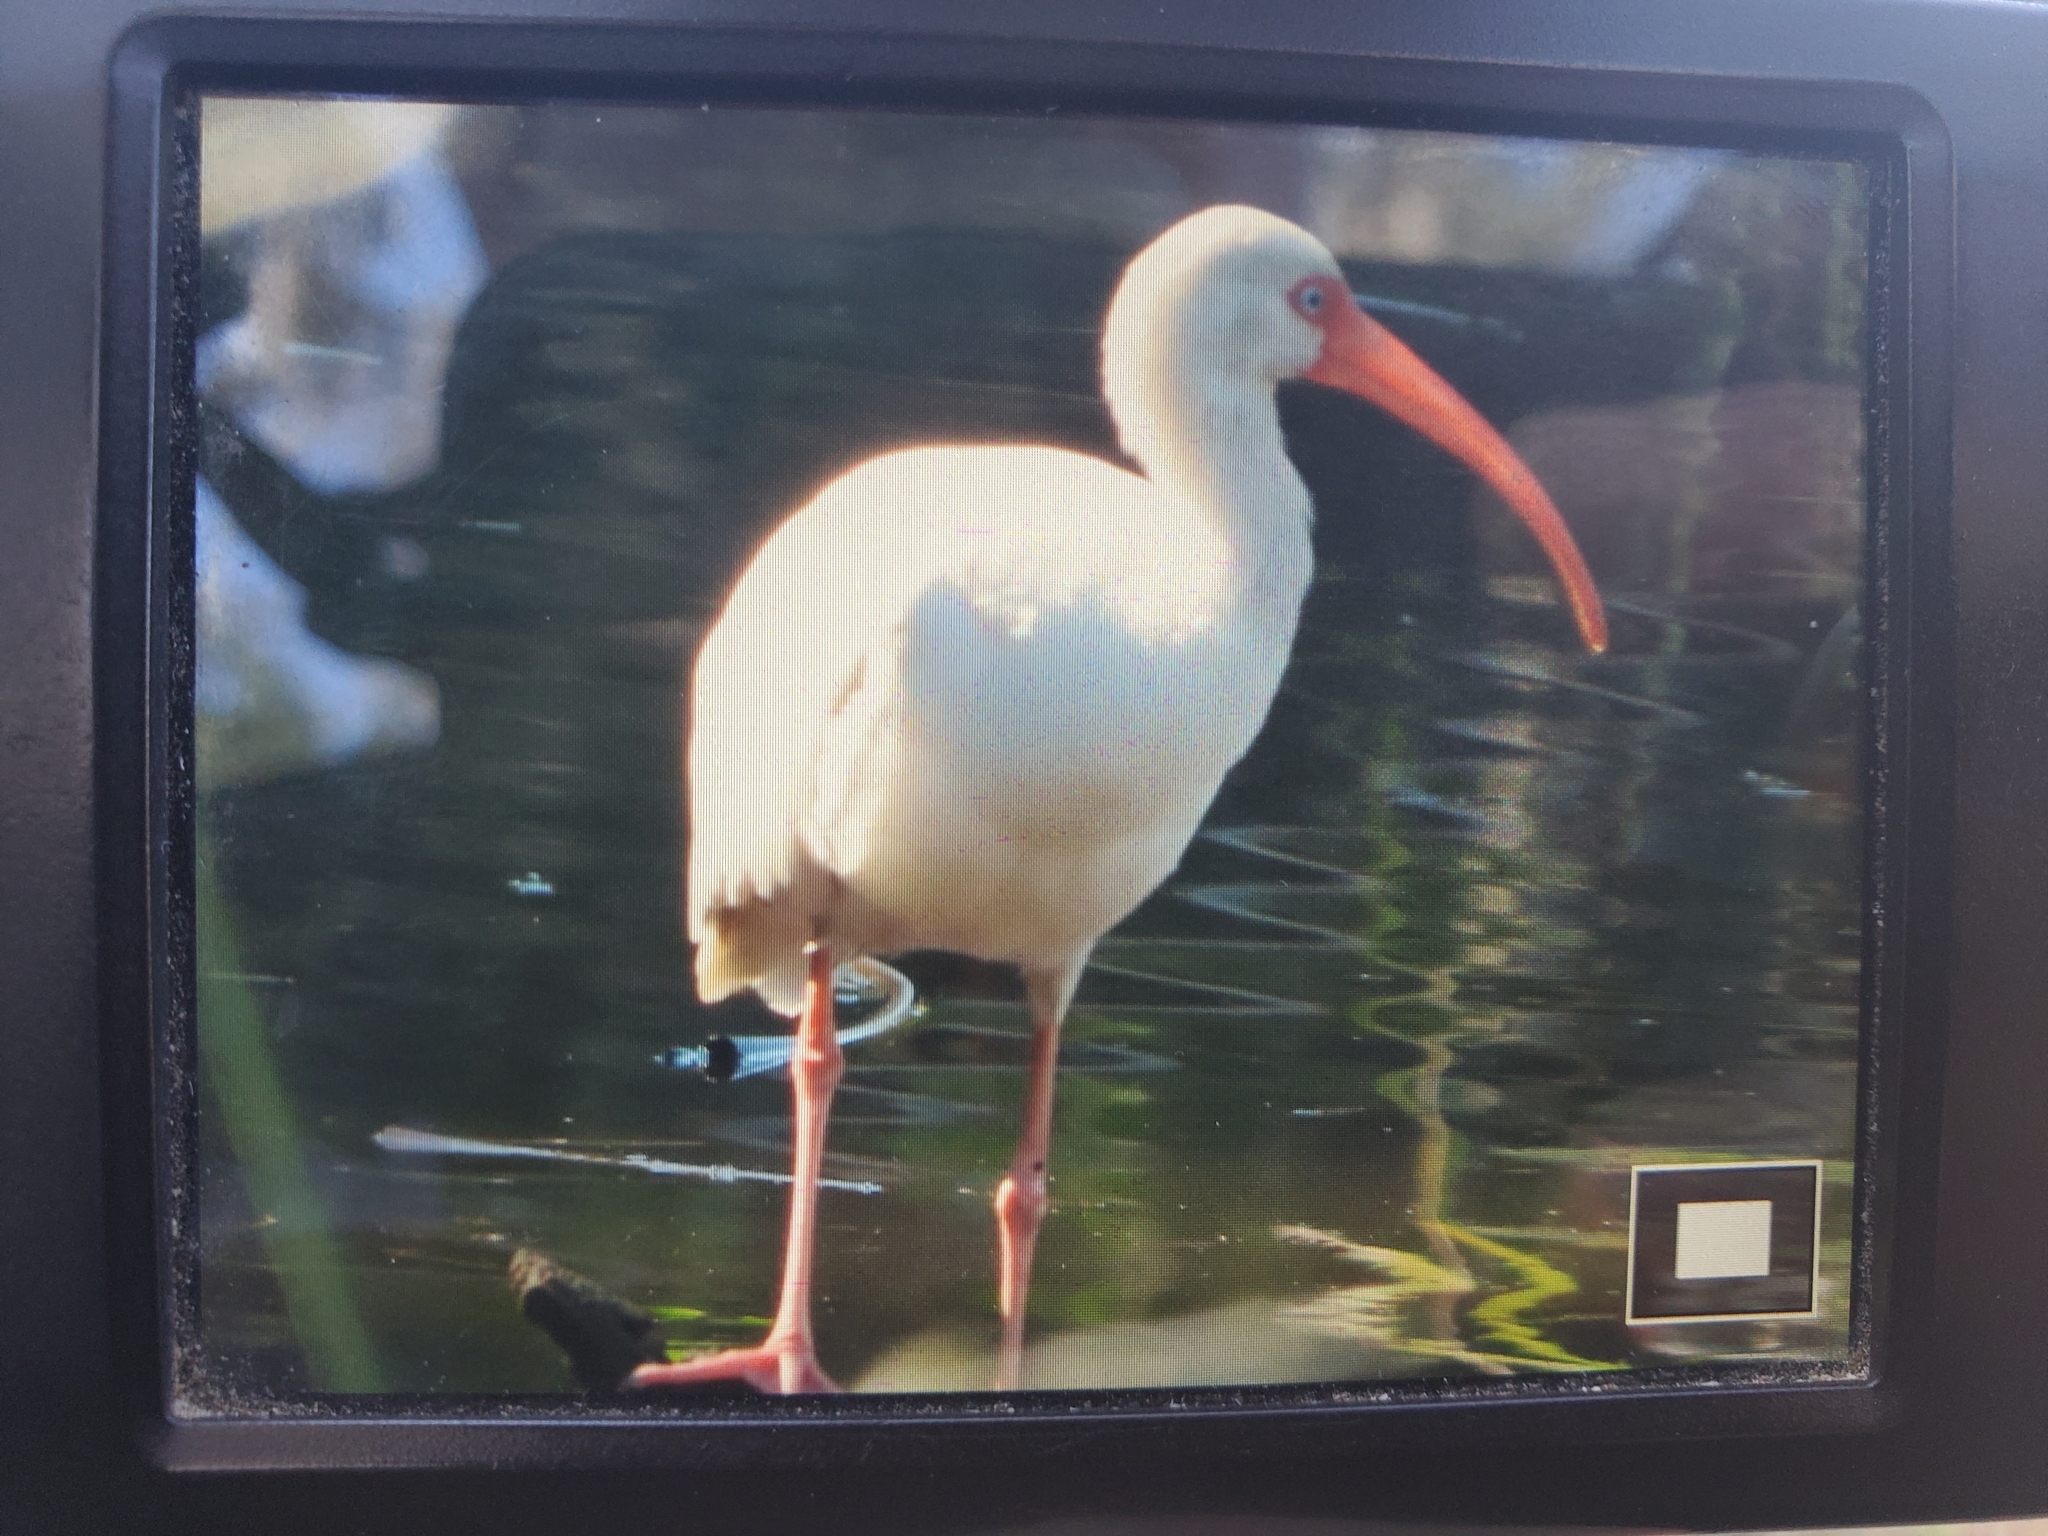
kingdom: Animalia
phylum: Chordata
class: Aves
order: Pelecaniformes
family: Threskiornithidae
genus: Eudocimus
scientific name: Eudocimus albus
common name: White ibis
